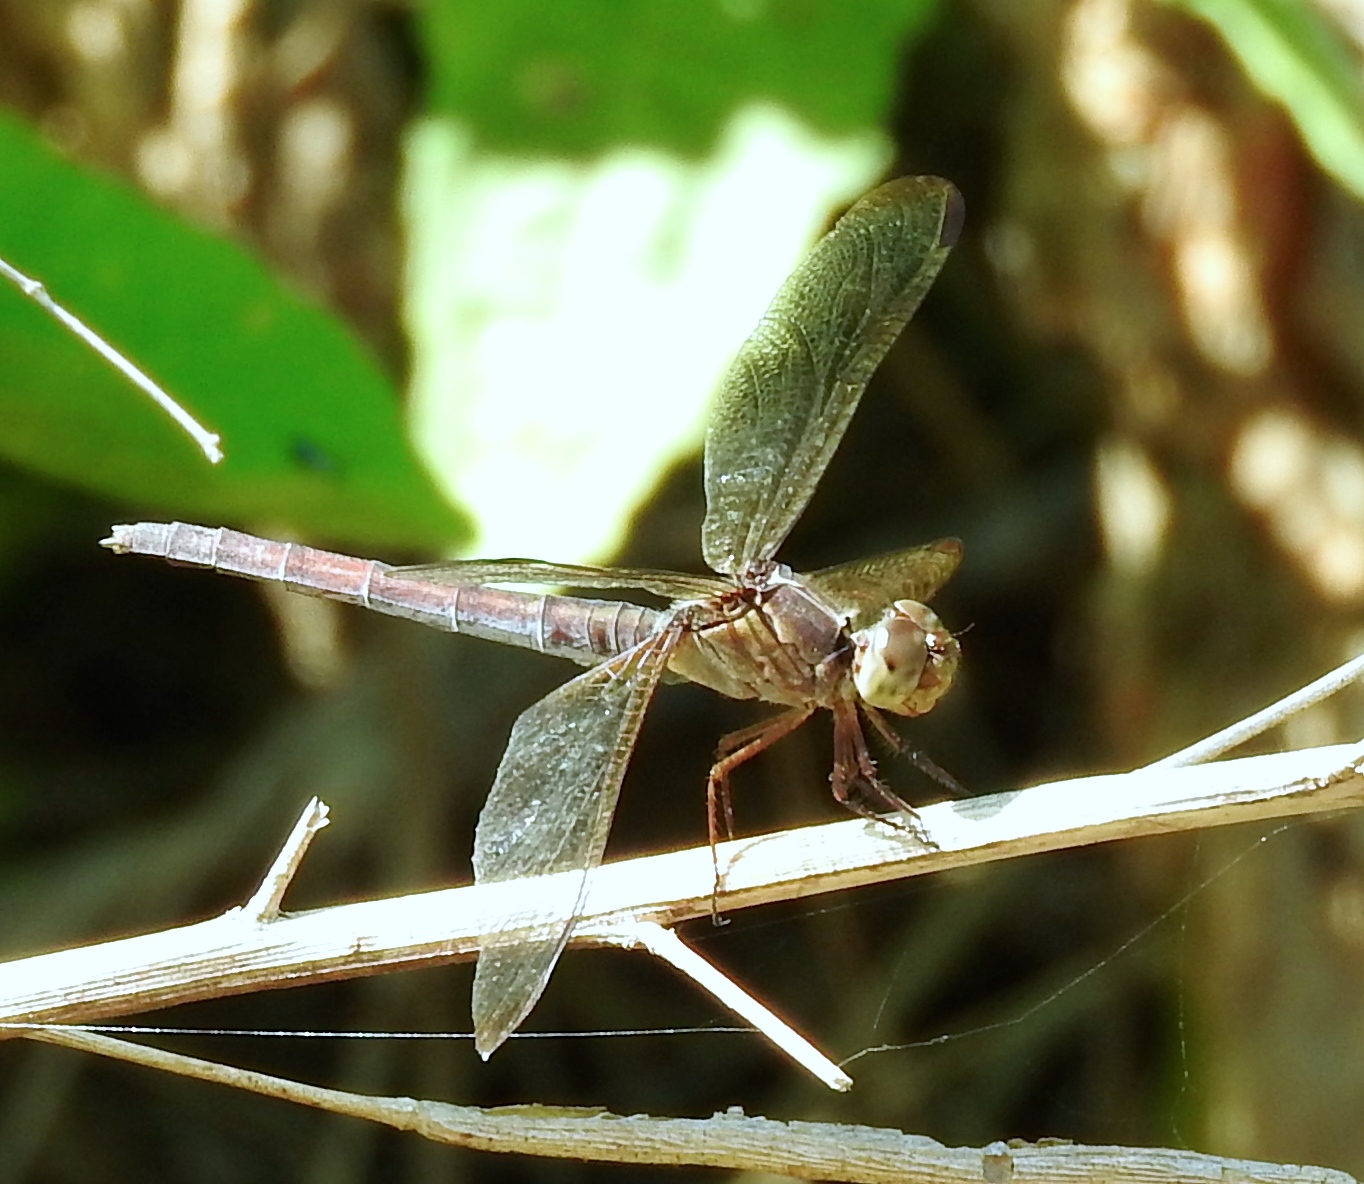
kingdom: Animalia
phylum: Arthropoda
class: Insecta
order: Odonata
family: Libellulidae
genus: Erythrodiplax
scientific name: Erythrodiplax
